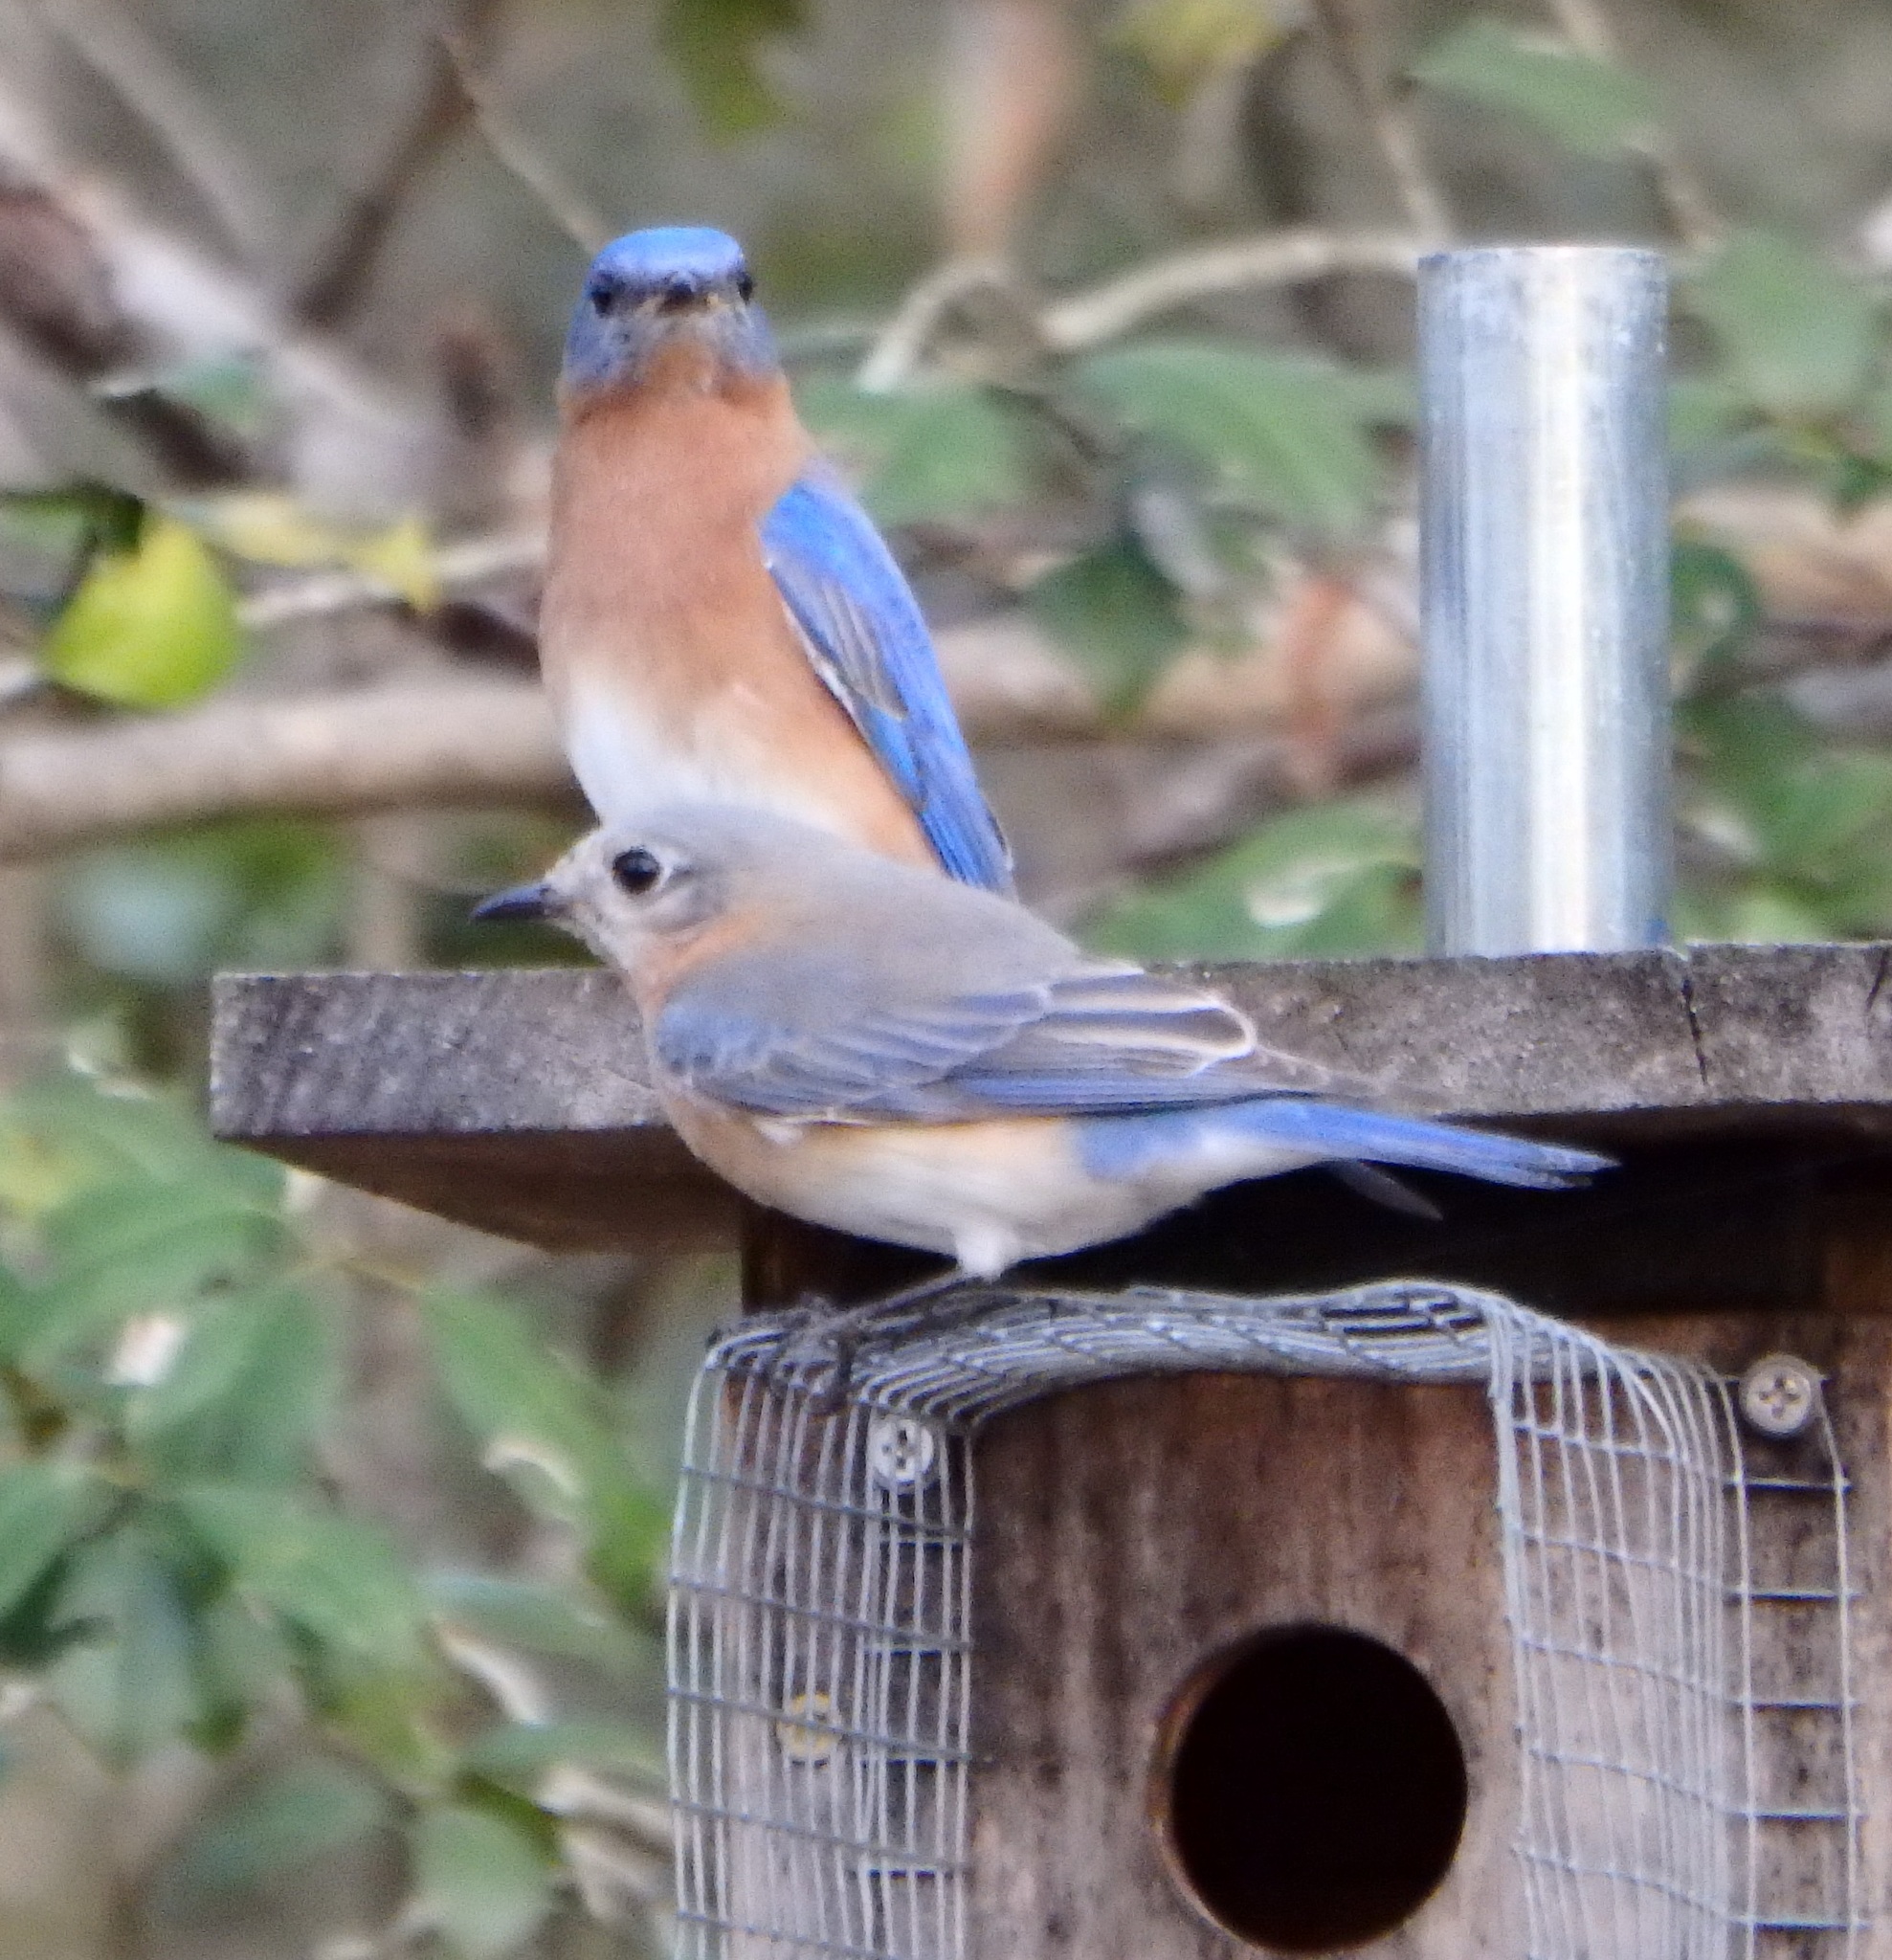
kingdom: Animalia
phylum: Chordata
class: Aves
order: Passeriformes
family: Turdidae
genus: Sialia
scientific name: Sialia sialis
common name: Eastern bluebird
